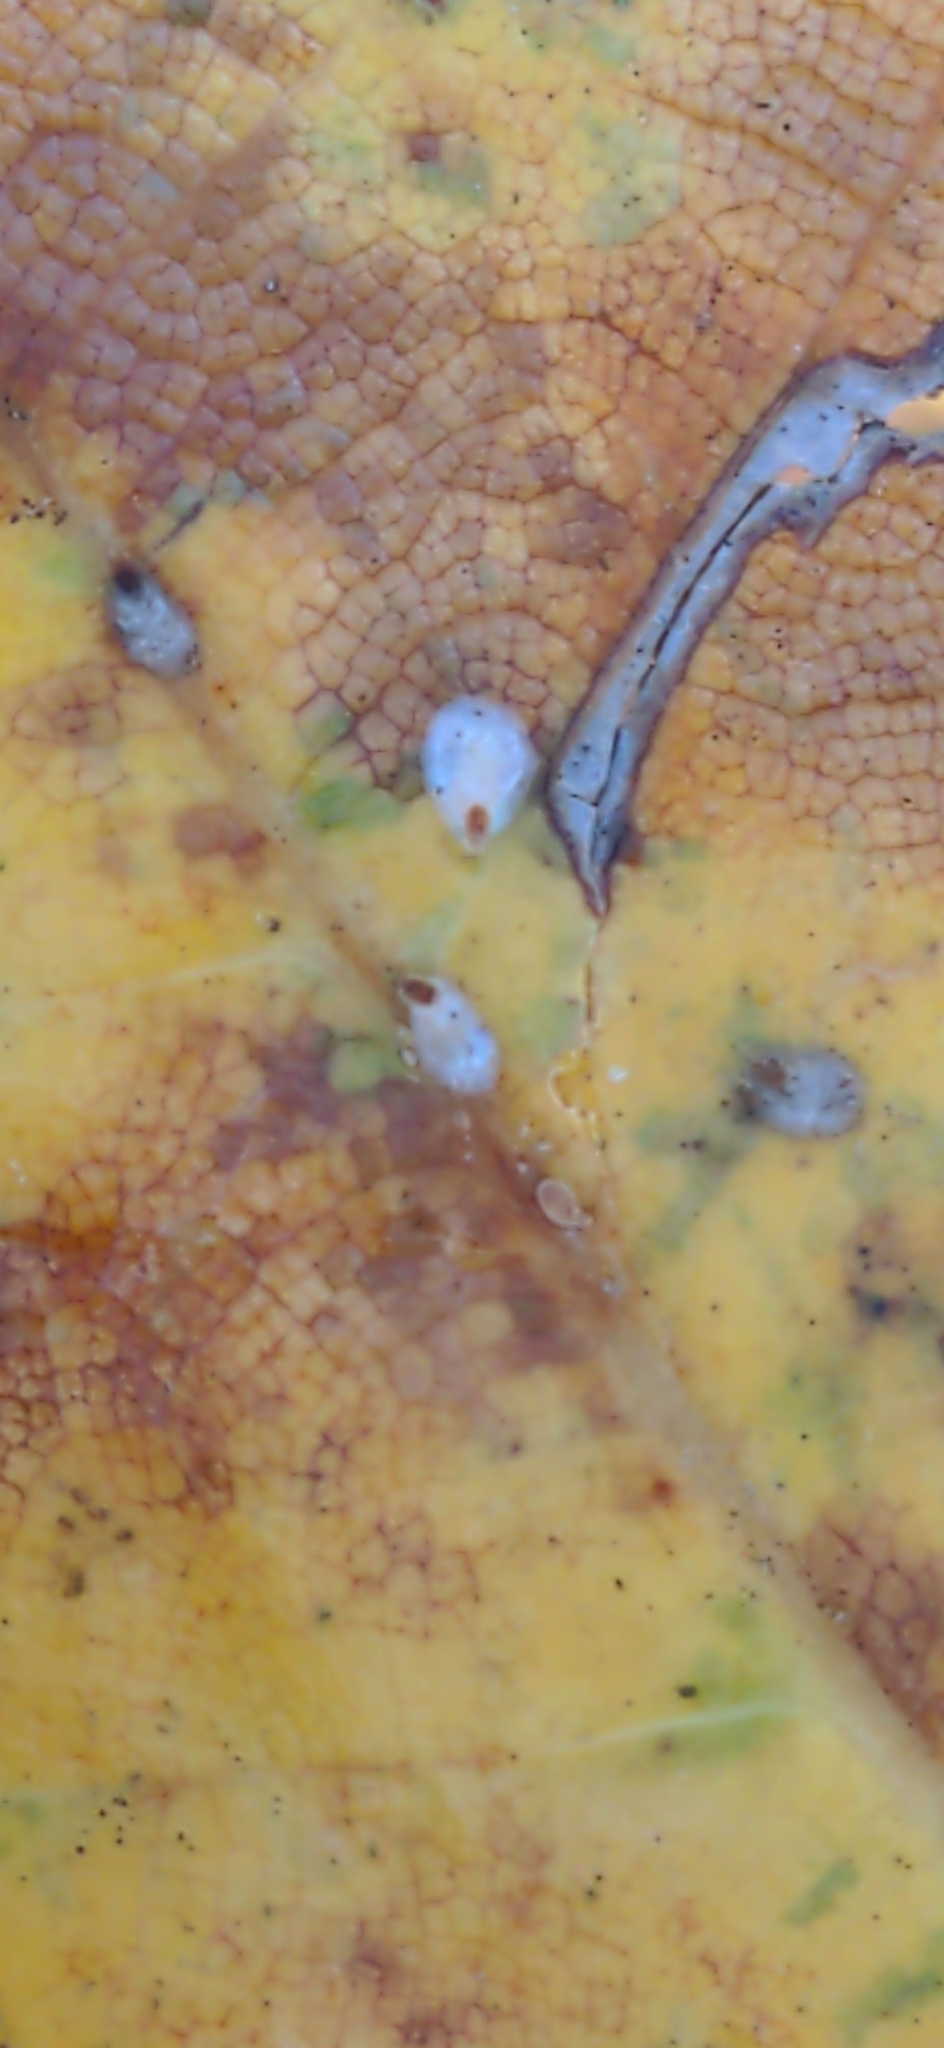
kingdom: Animalia
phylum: Arthropoda
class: Insecta
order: Hemiptera
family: Diaspididae
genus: Pseudaulacaspis
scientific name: Pseudaulacaspis cockerelli
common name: False oleander scale
